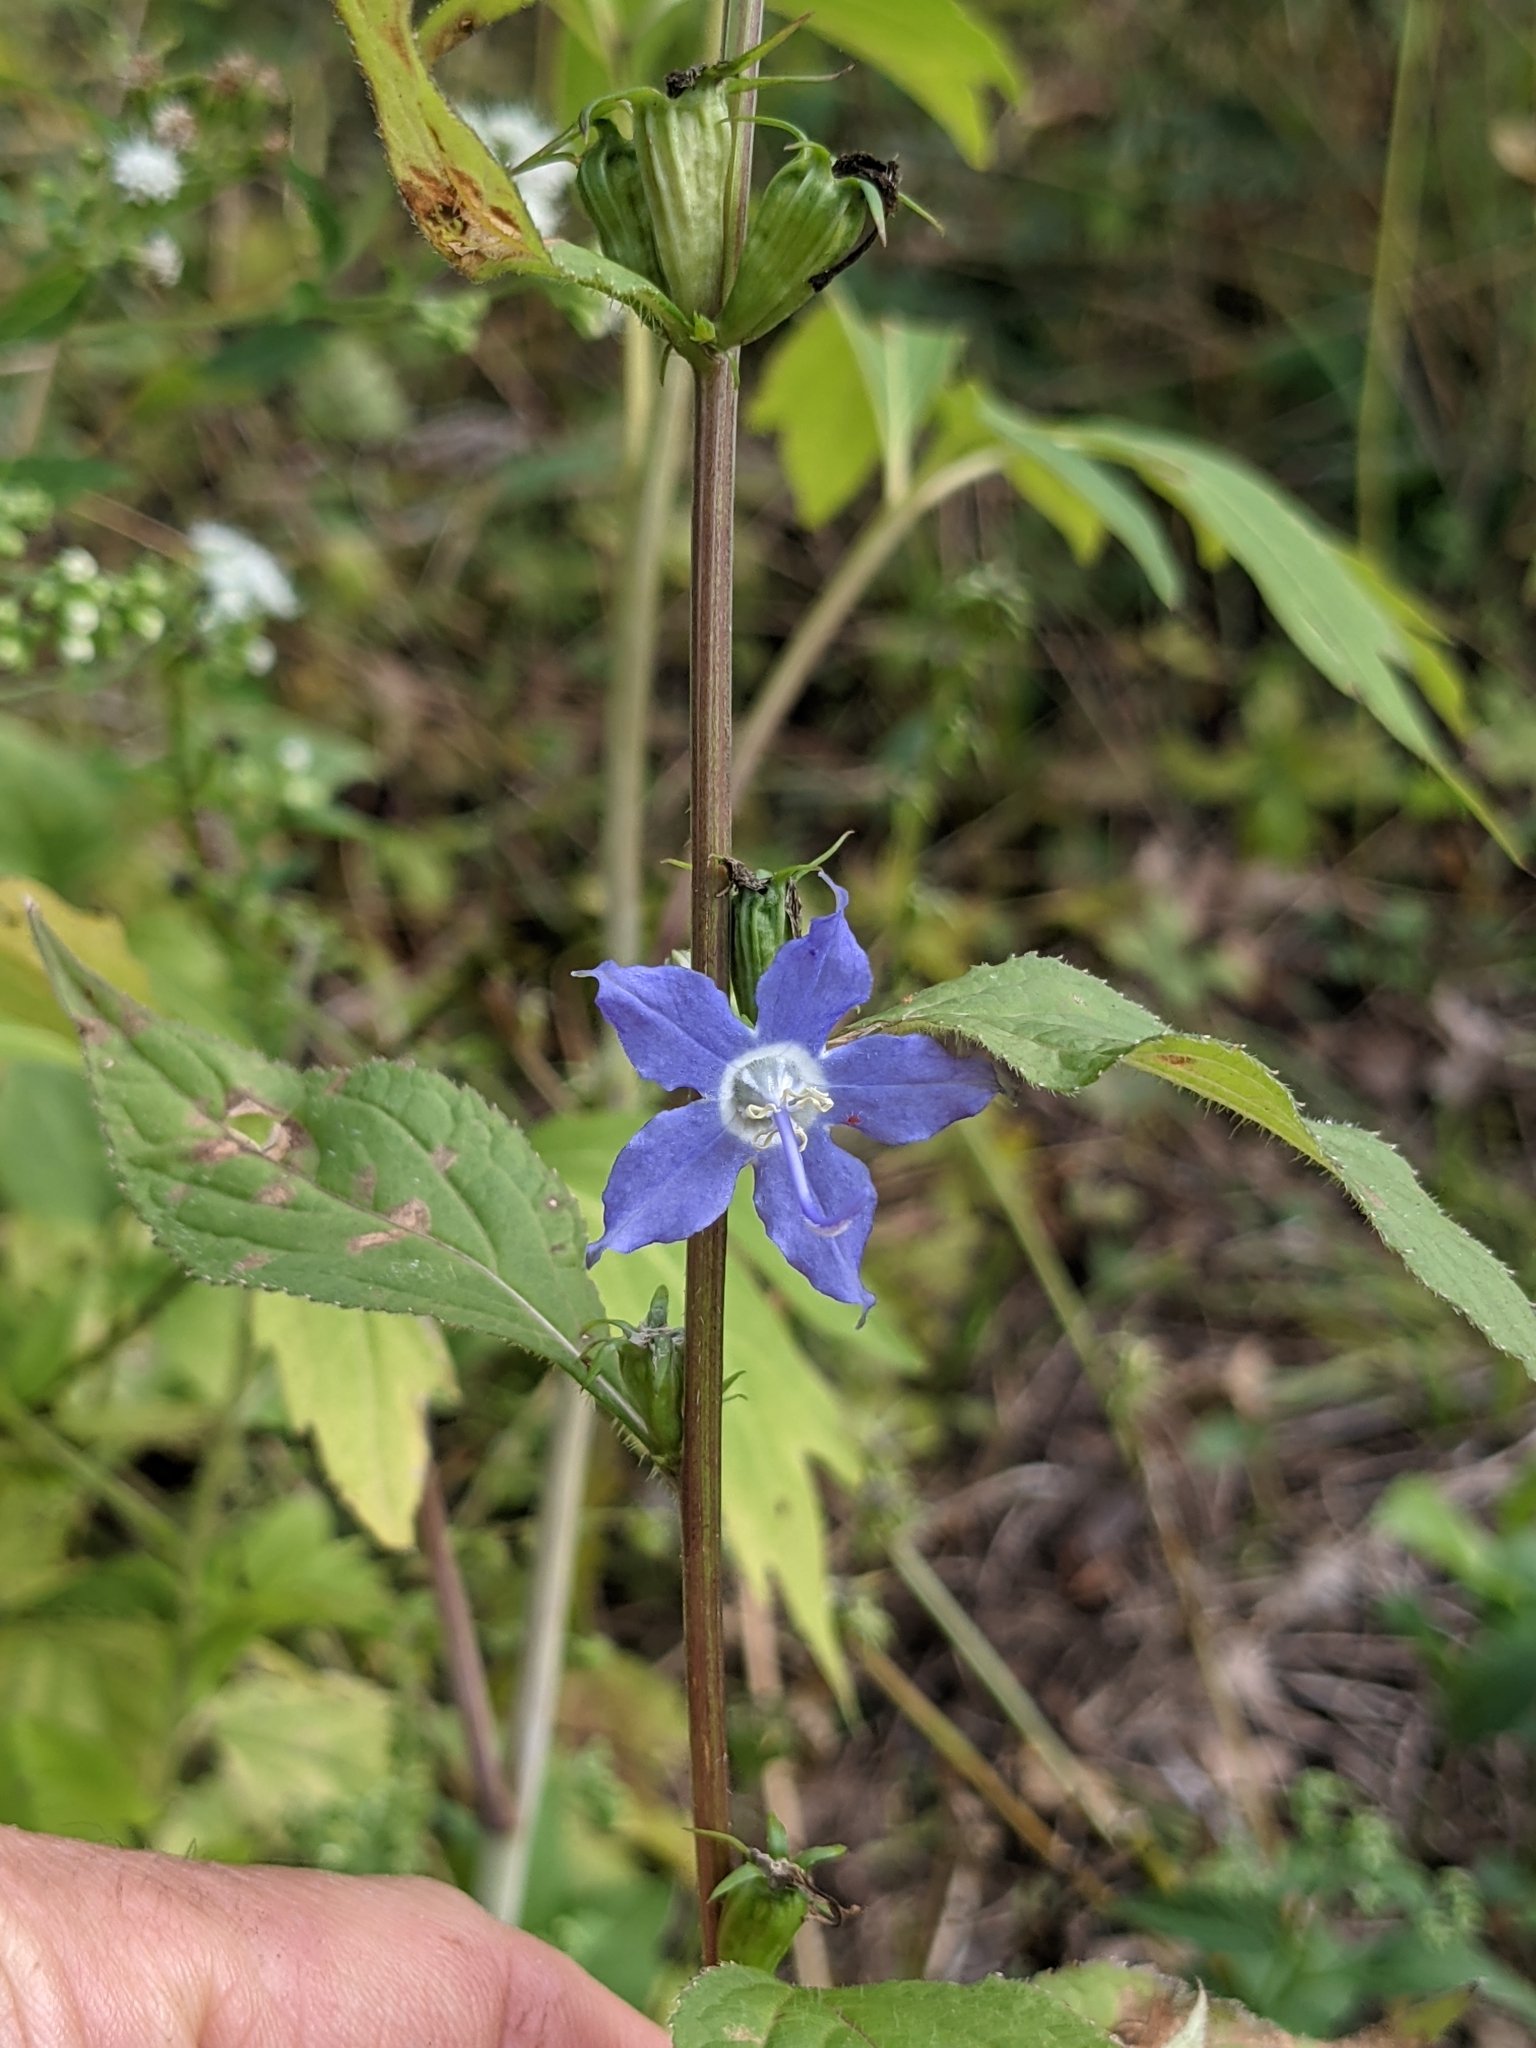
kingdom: Plantae
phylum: Tracheophyta
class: Magnoliopsida
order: Asterales
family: Campanulaceae
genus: Campanulastrum
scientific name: Campanulastrum americanum
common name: American bellflower
